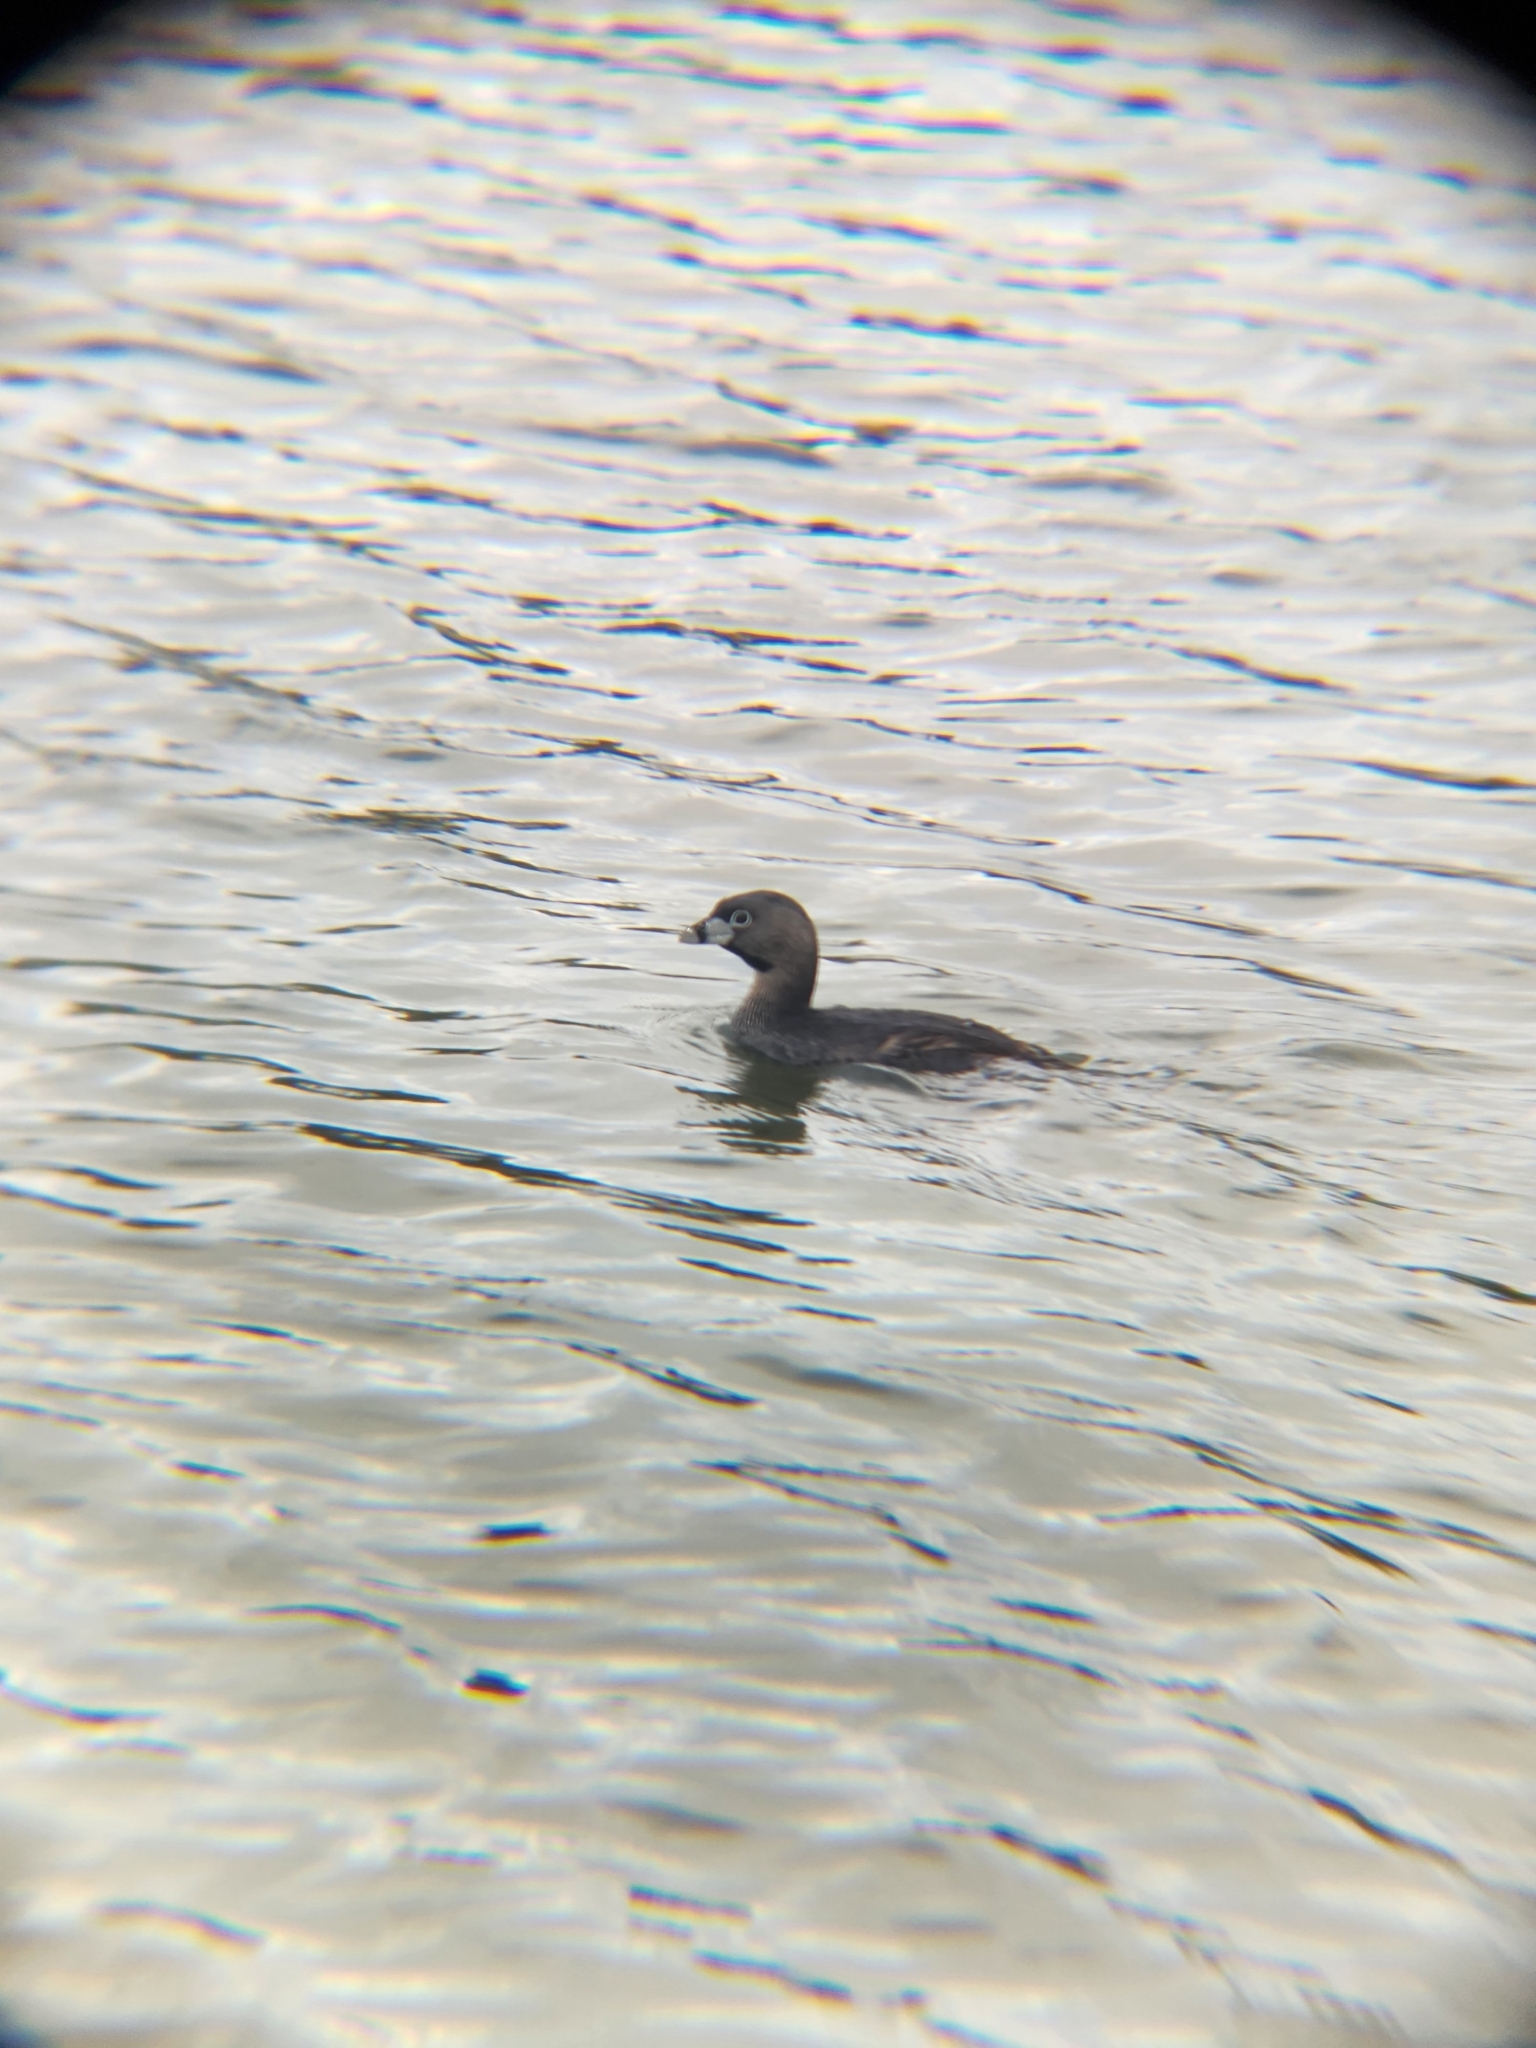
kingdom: Animalia
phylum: Chordata
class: Aves
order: Podicipediformes
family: Podicipedidae
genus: Podilymbus
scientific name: Podilymbus podiceps
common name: Pied-billed grebe
